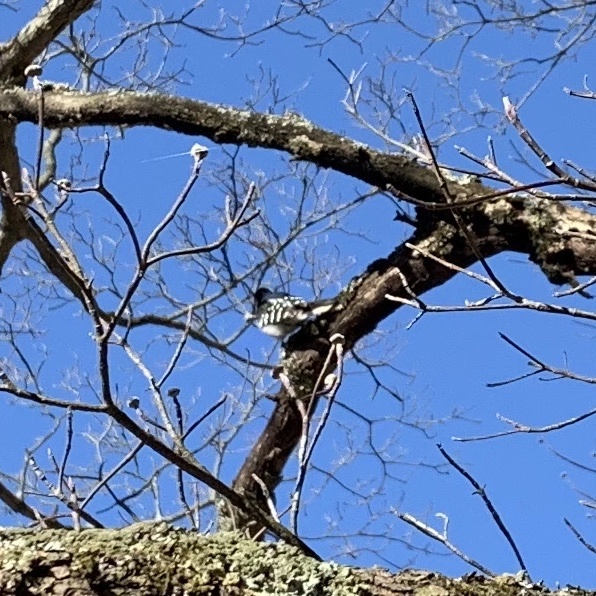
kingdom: Animalia
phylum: Chordata
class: Aves
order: Piciformes
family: Picidae
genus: Dryobates
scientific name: Dryobates pubescens
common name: Downy woodpecker
